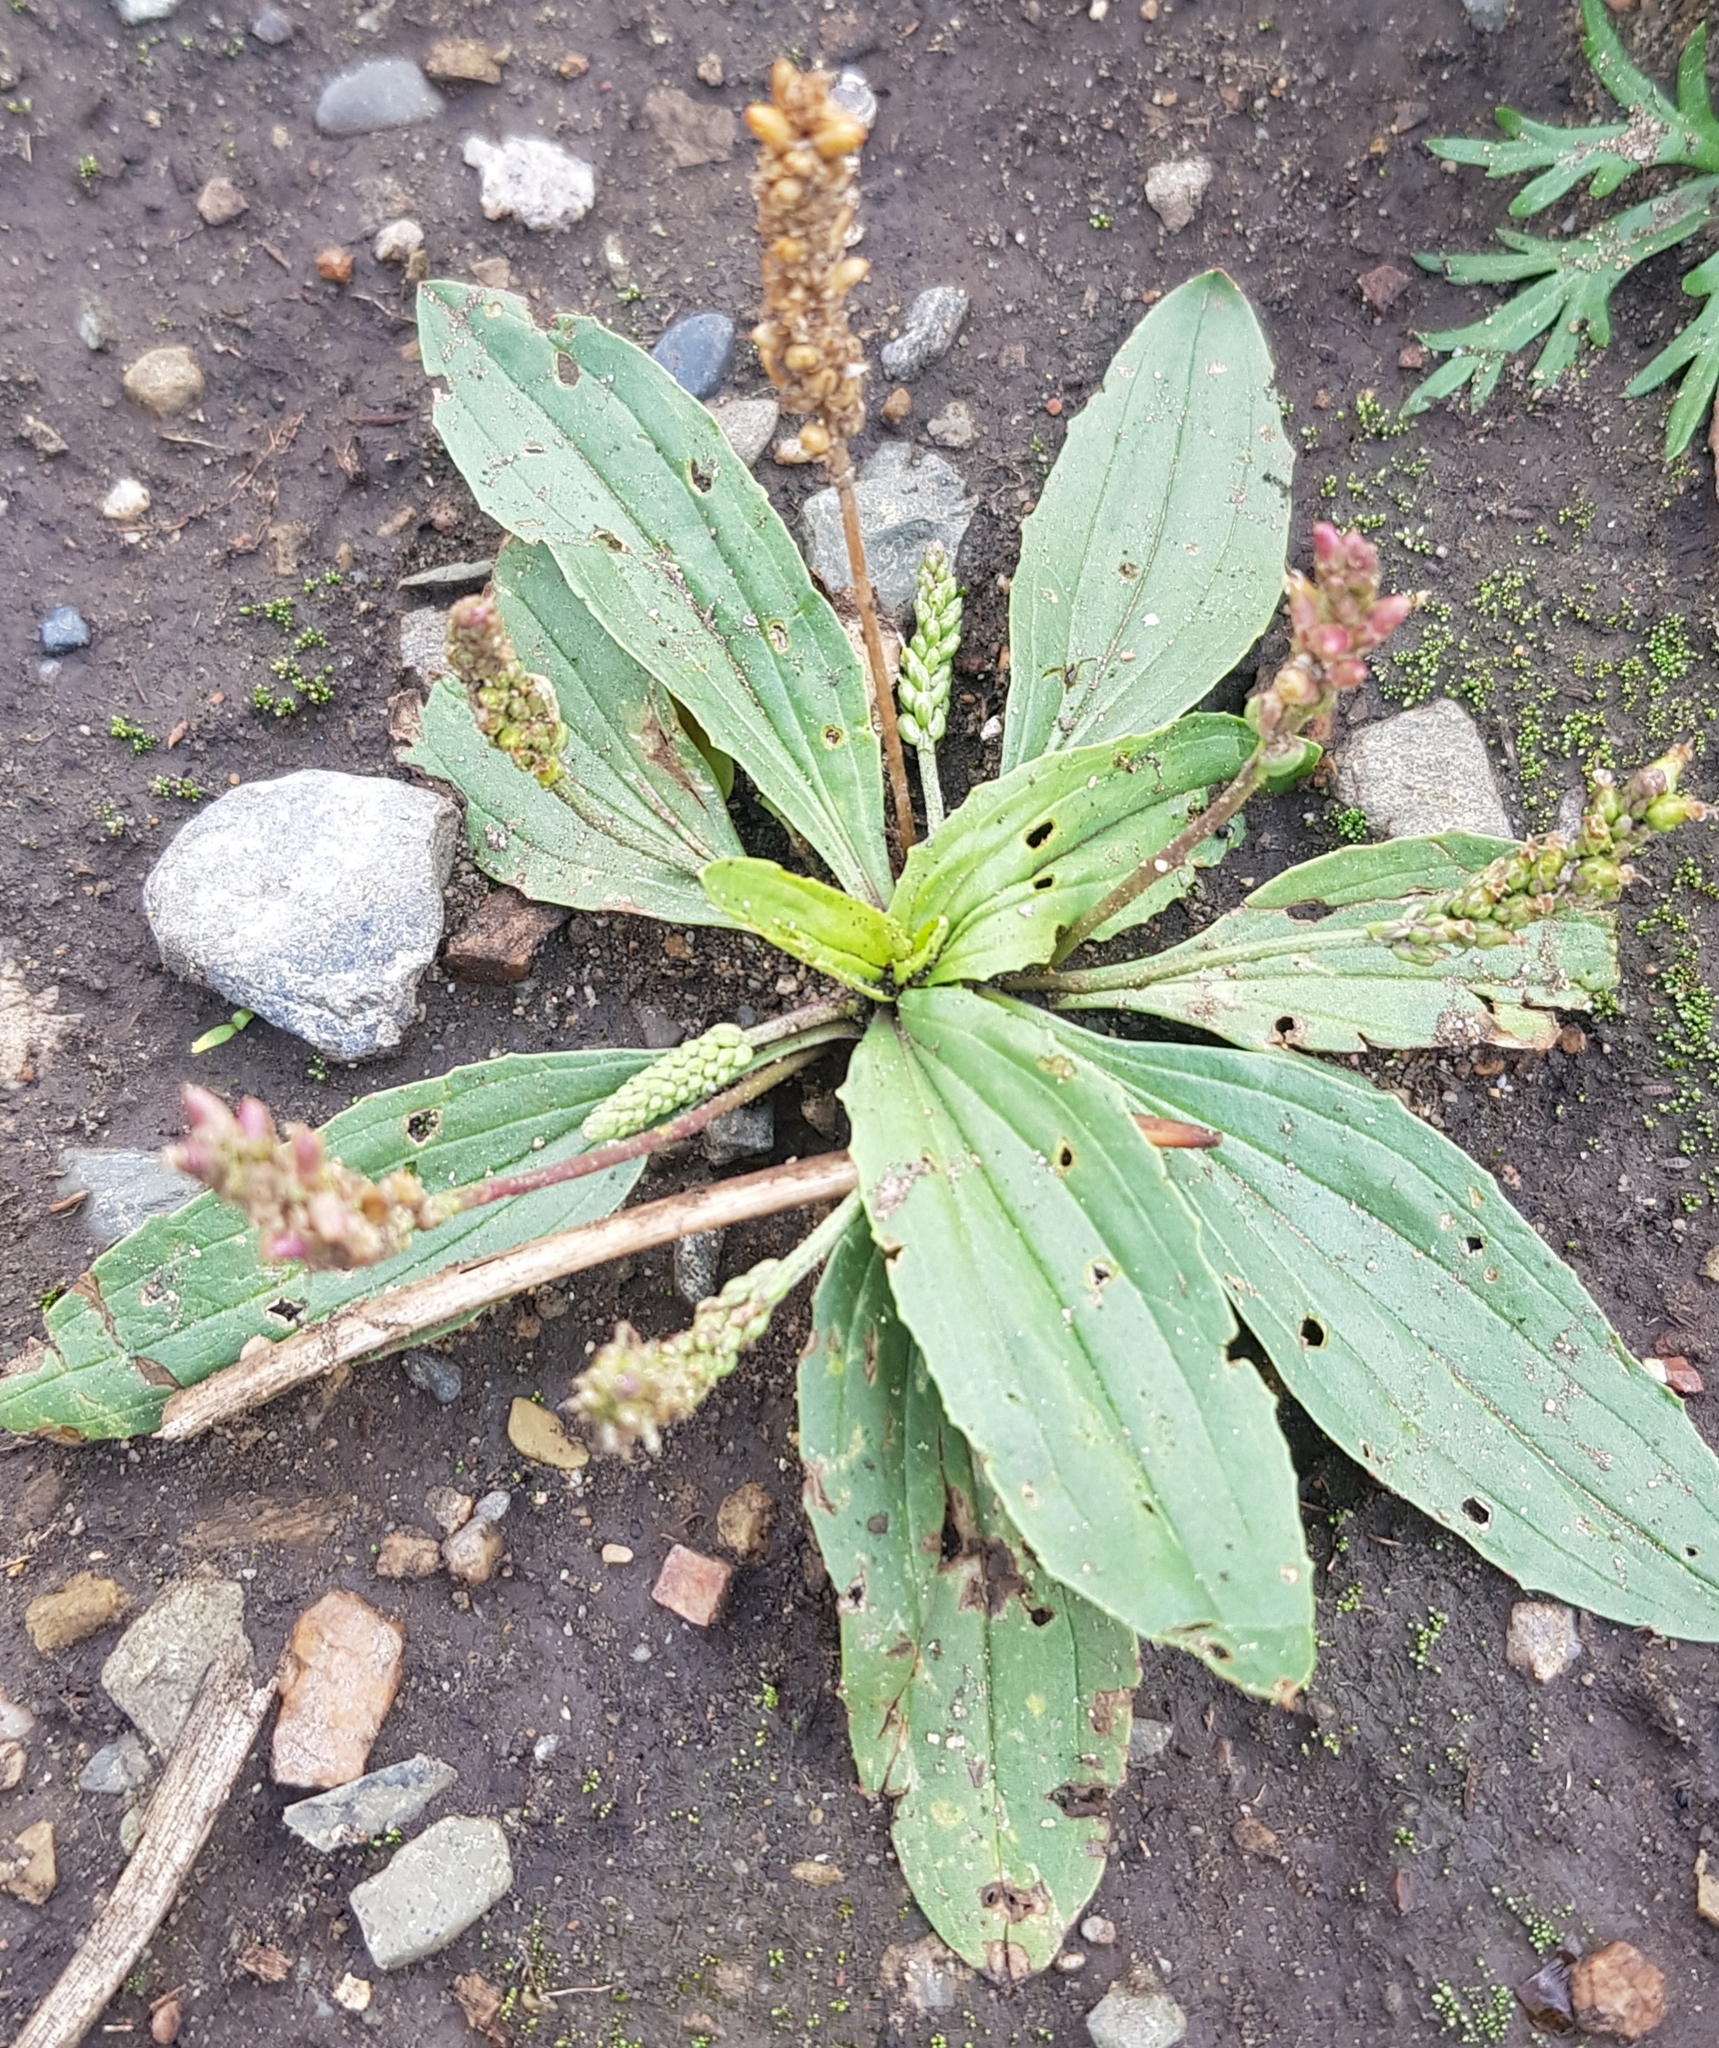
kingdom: Plantae
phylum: Tracheophyta
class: Magnoliopsida
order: Lamiales
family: Plantaginaceae
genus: Plantago
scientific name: Plantago depressa
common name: Depressed plantain
